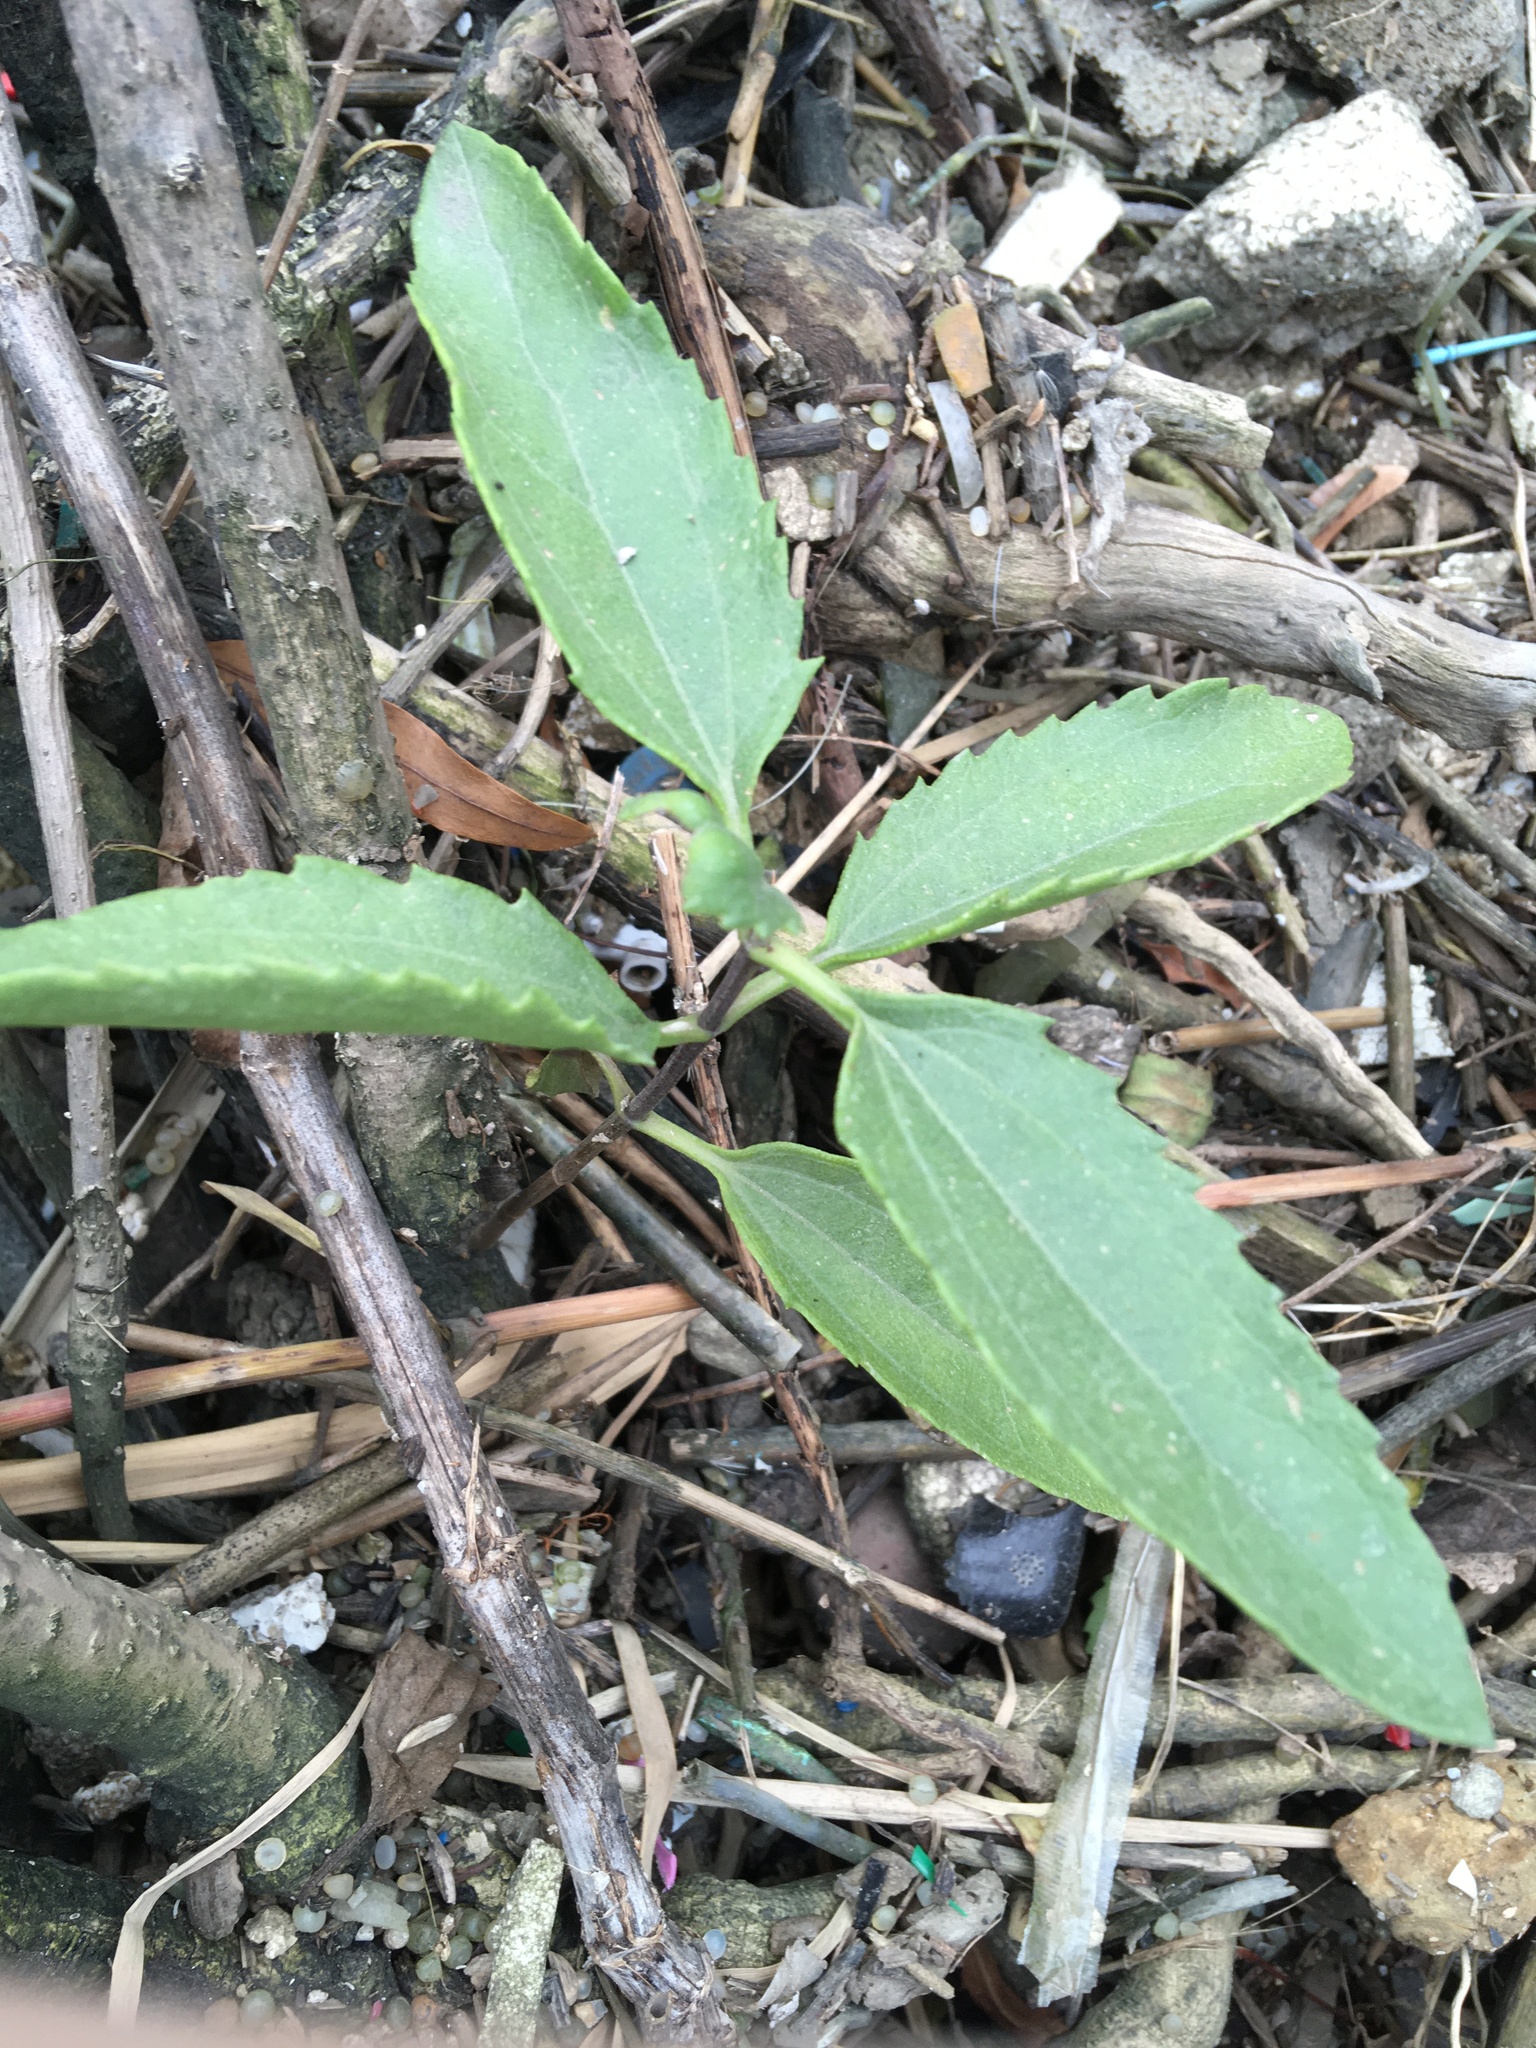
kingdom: Plantae
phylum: Tracheophyta
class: Magnoliopsida
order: Asterales
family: Asteraceae
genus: Iva
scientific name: Iva frutescens
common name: Big-leaved marsh-elder
